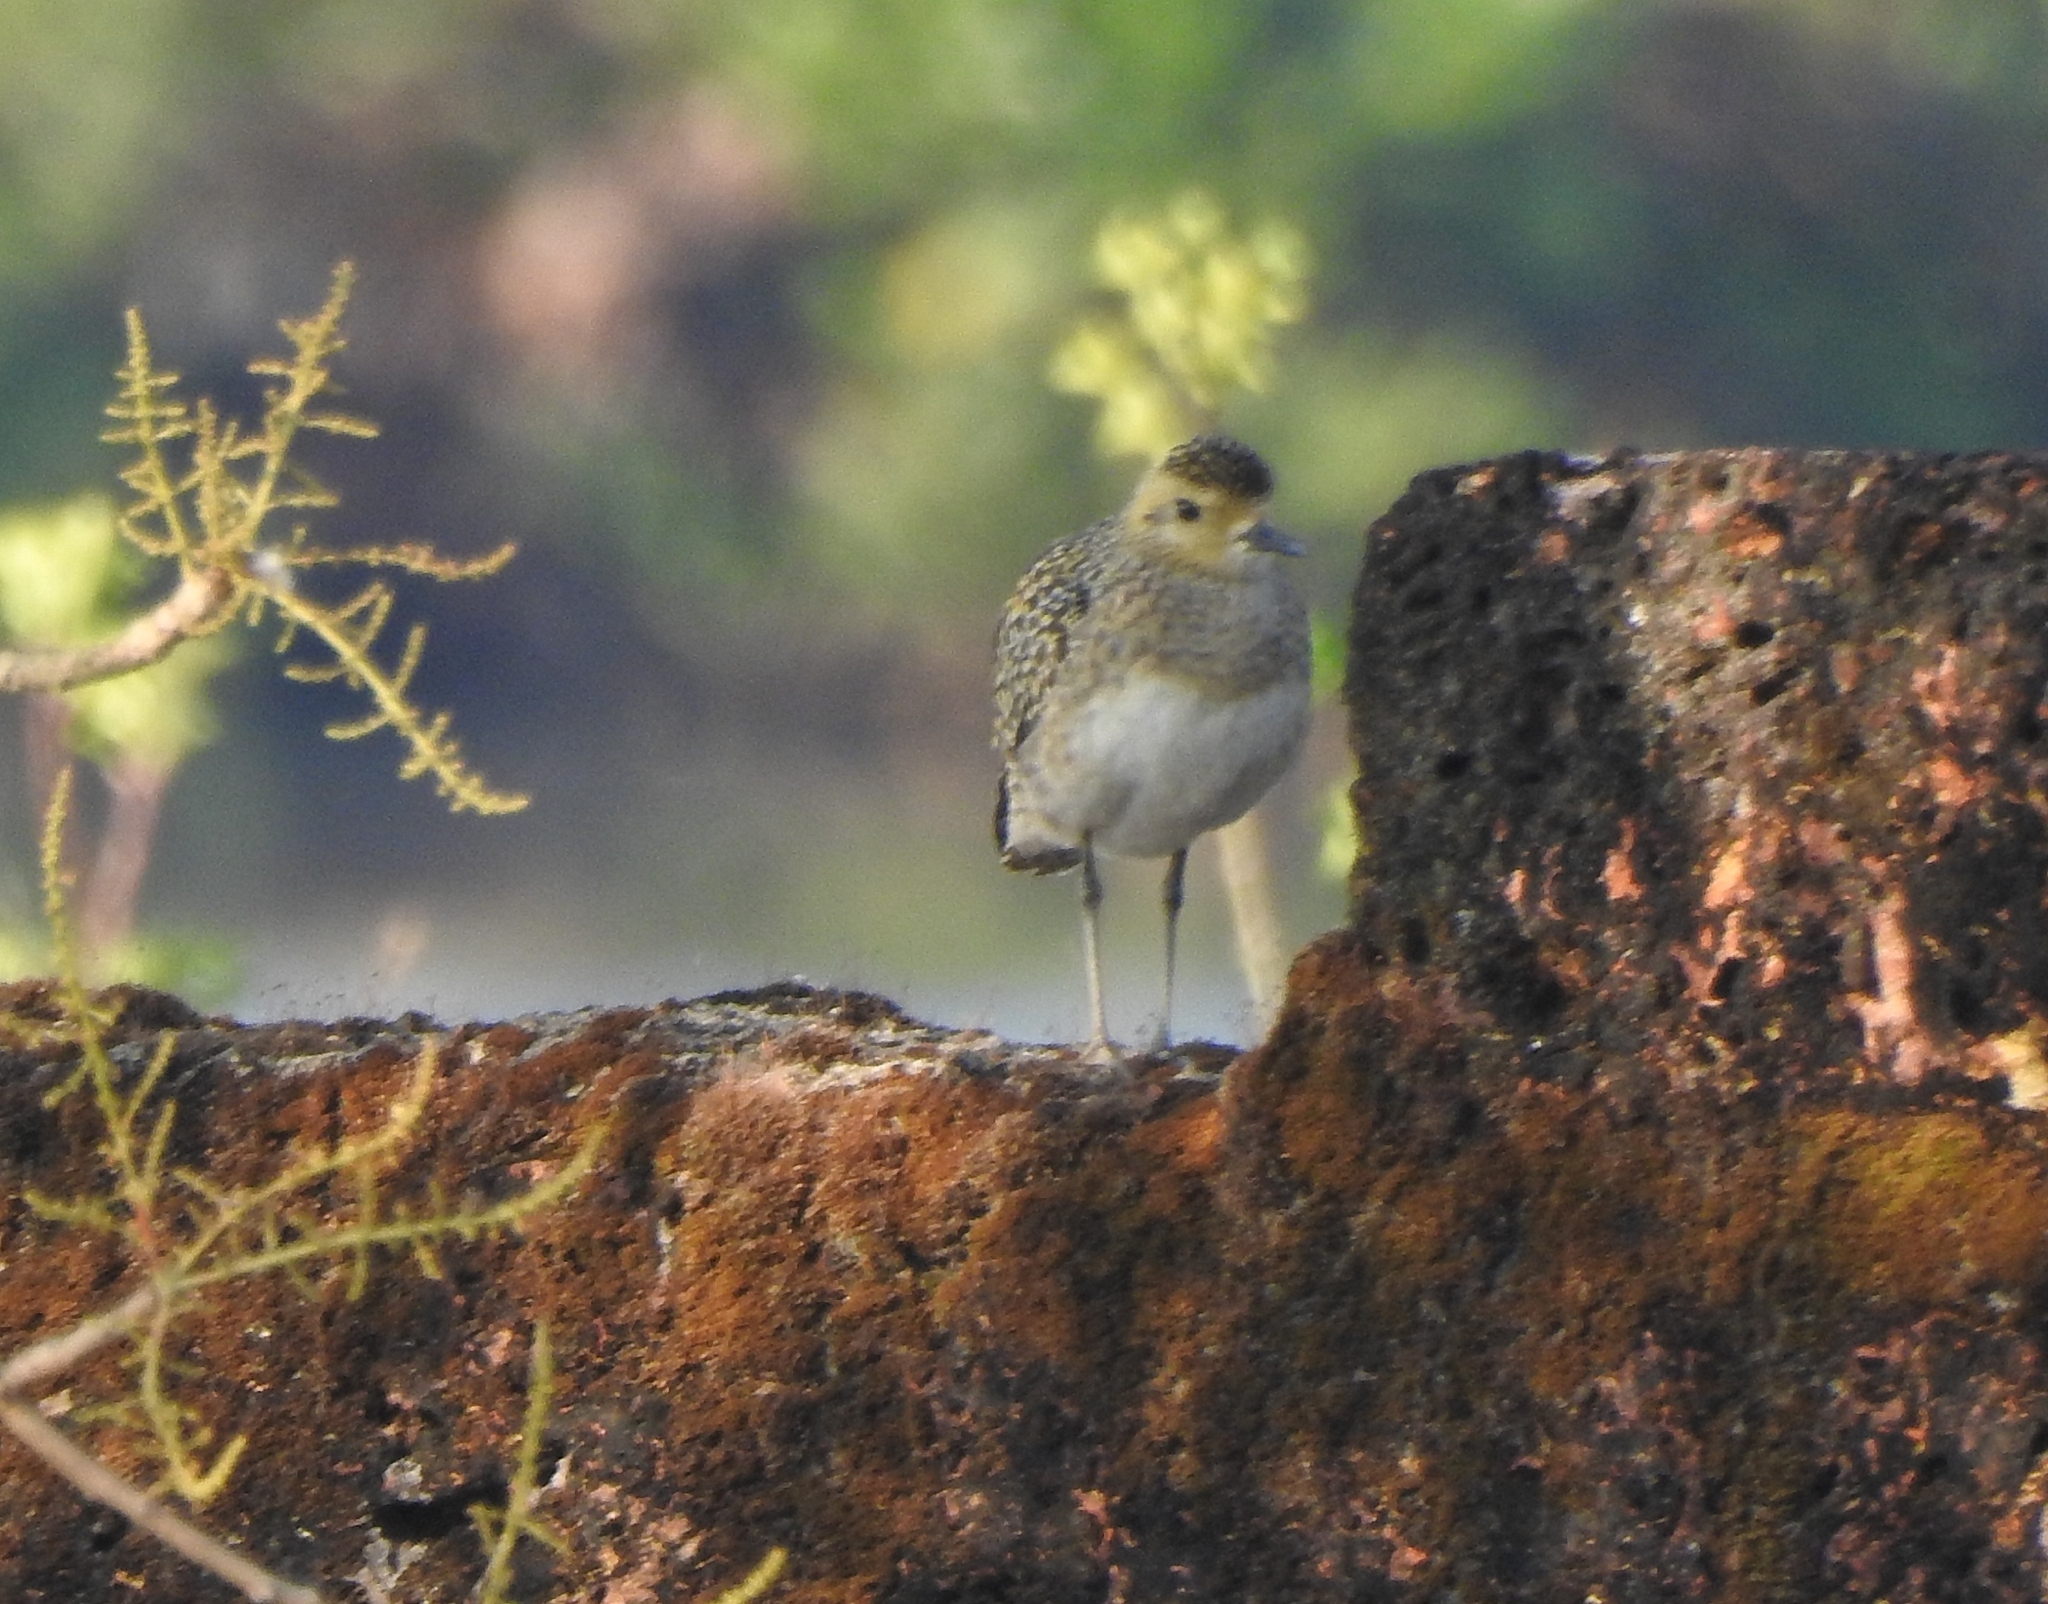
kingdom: Animalia
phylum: Chordata
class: Aves
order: Charadriiformes
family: Charadriidae
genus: Pluvialis
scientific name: Pluvialis fulva
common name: Pacific golden plover
